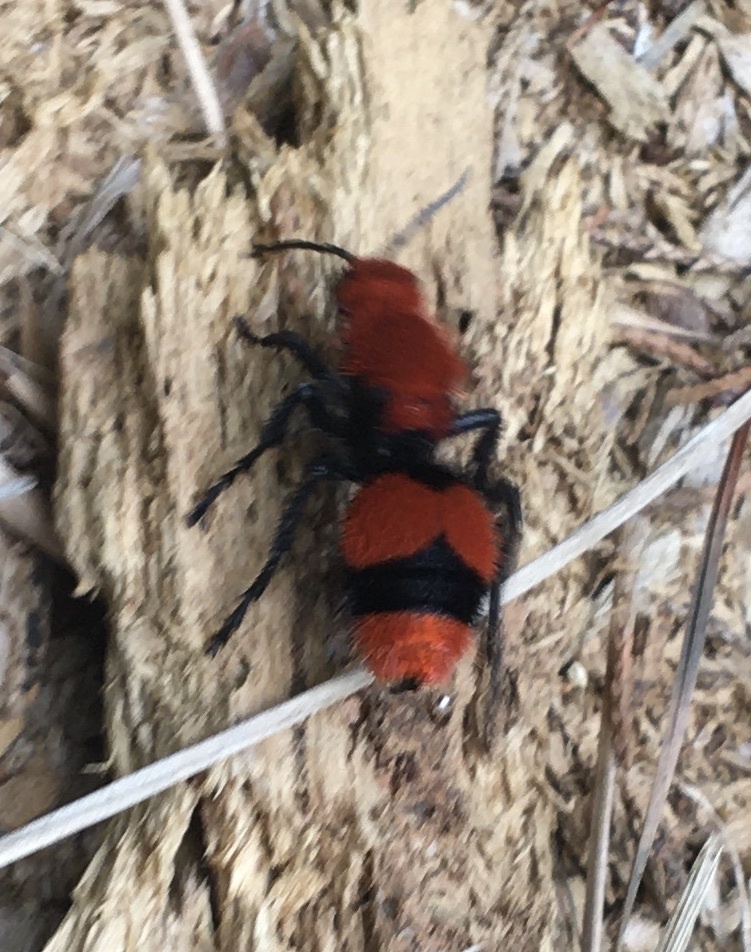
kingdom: Animalia
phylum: Arthropoda
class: Insecta
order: Hymenoptera
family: Mutillidae
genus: Dasymutilla
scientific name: Dasymutilla occidentalis
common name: Common eastern velvet ant
